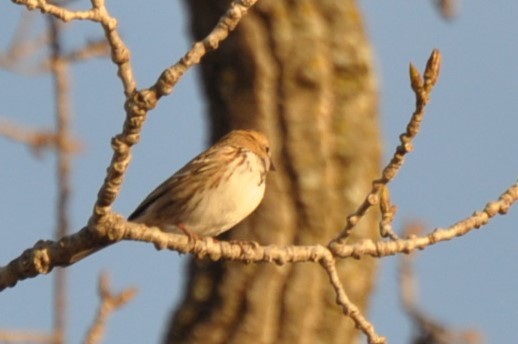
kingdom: Animalia
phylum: Chordata
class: Aves
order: Passeriformes
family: Passerellidae
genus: Zonotrichia
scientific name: Zonotrichia querula
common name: Harris's sparrow
